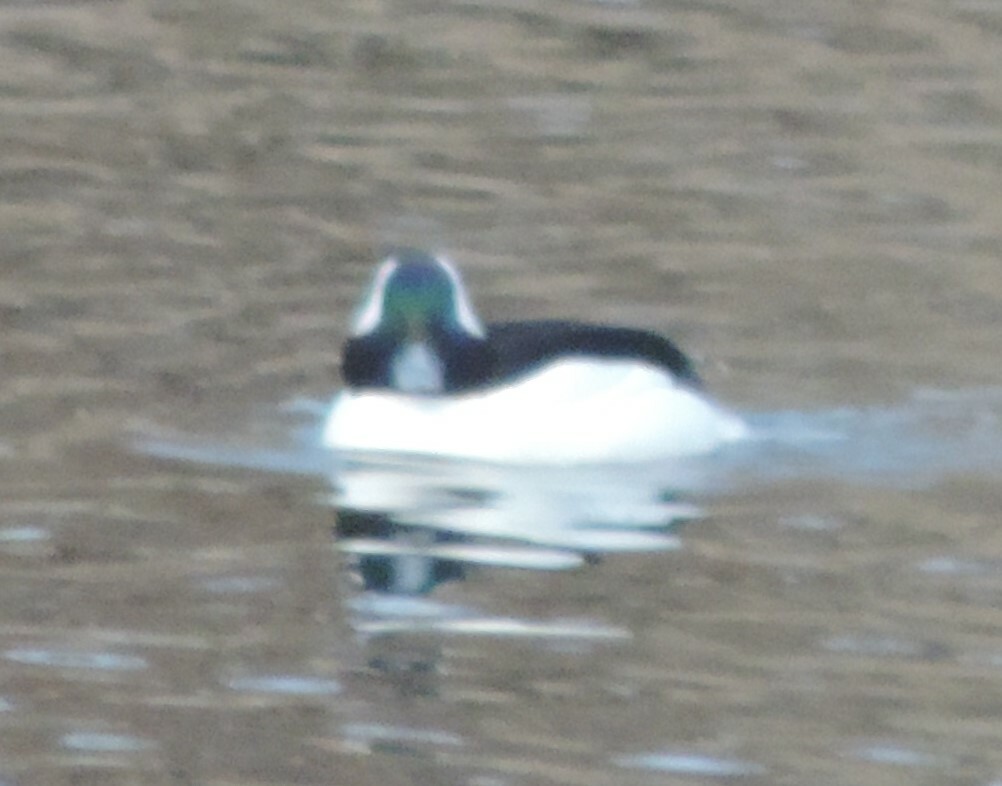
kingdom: Animalia
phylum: Chordata
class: Aves
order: Anseriformes
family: Anatidae
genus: Bucephala
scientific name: Bucephala albeola
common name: Bufflehead
